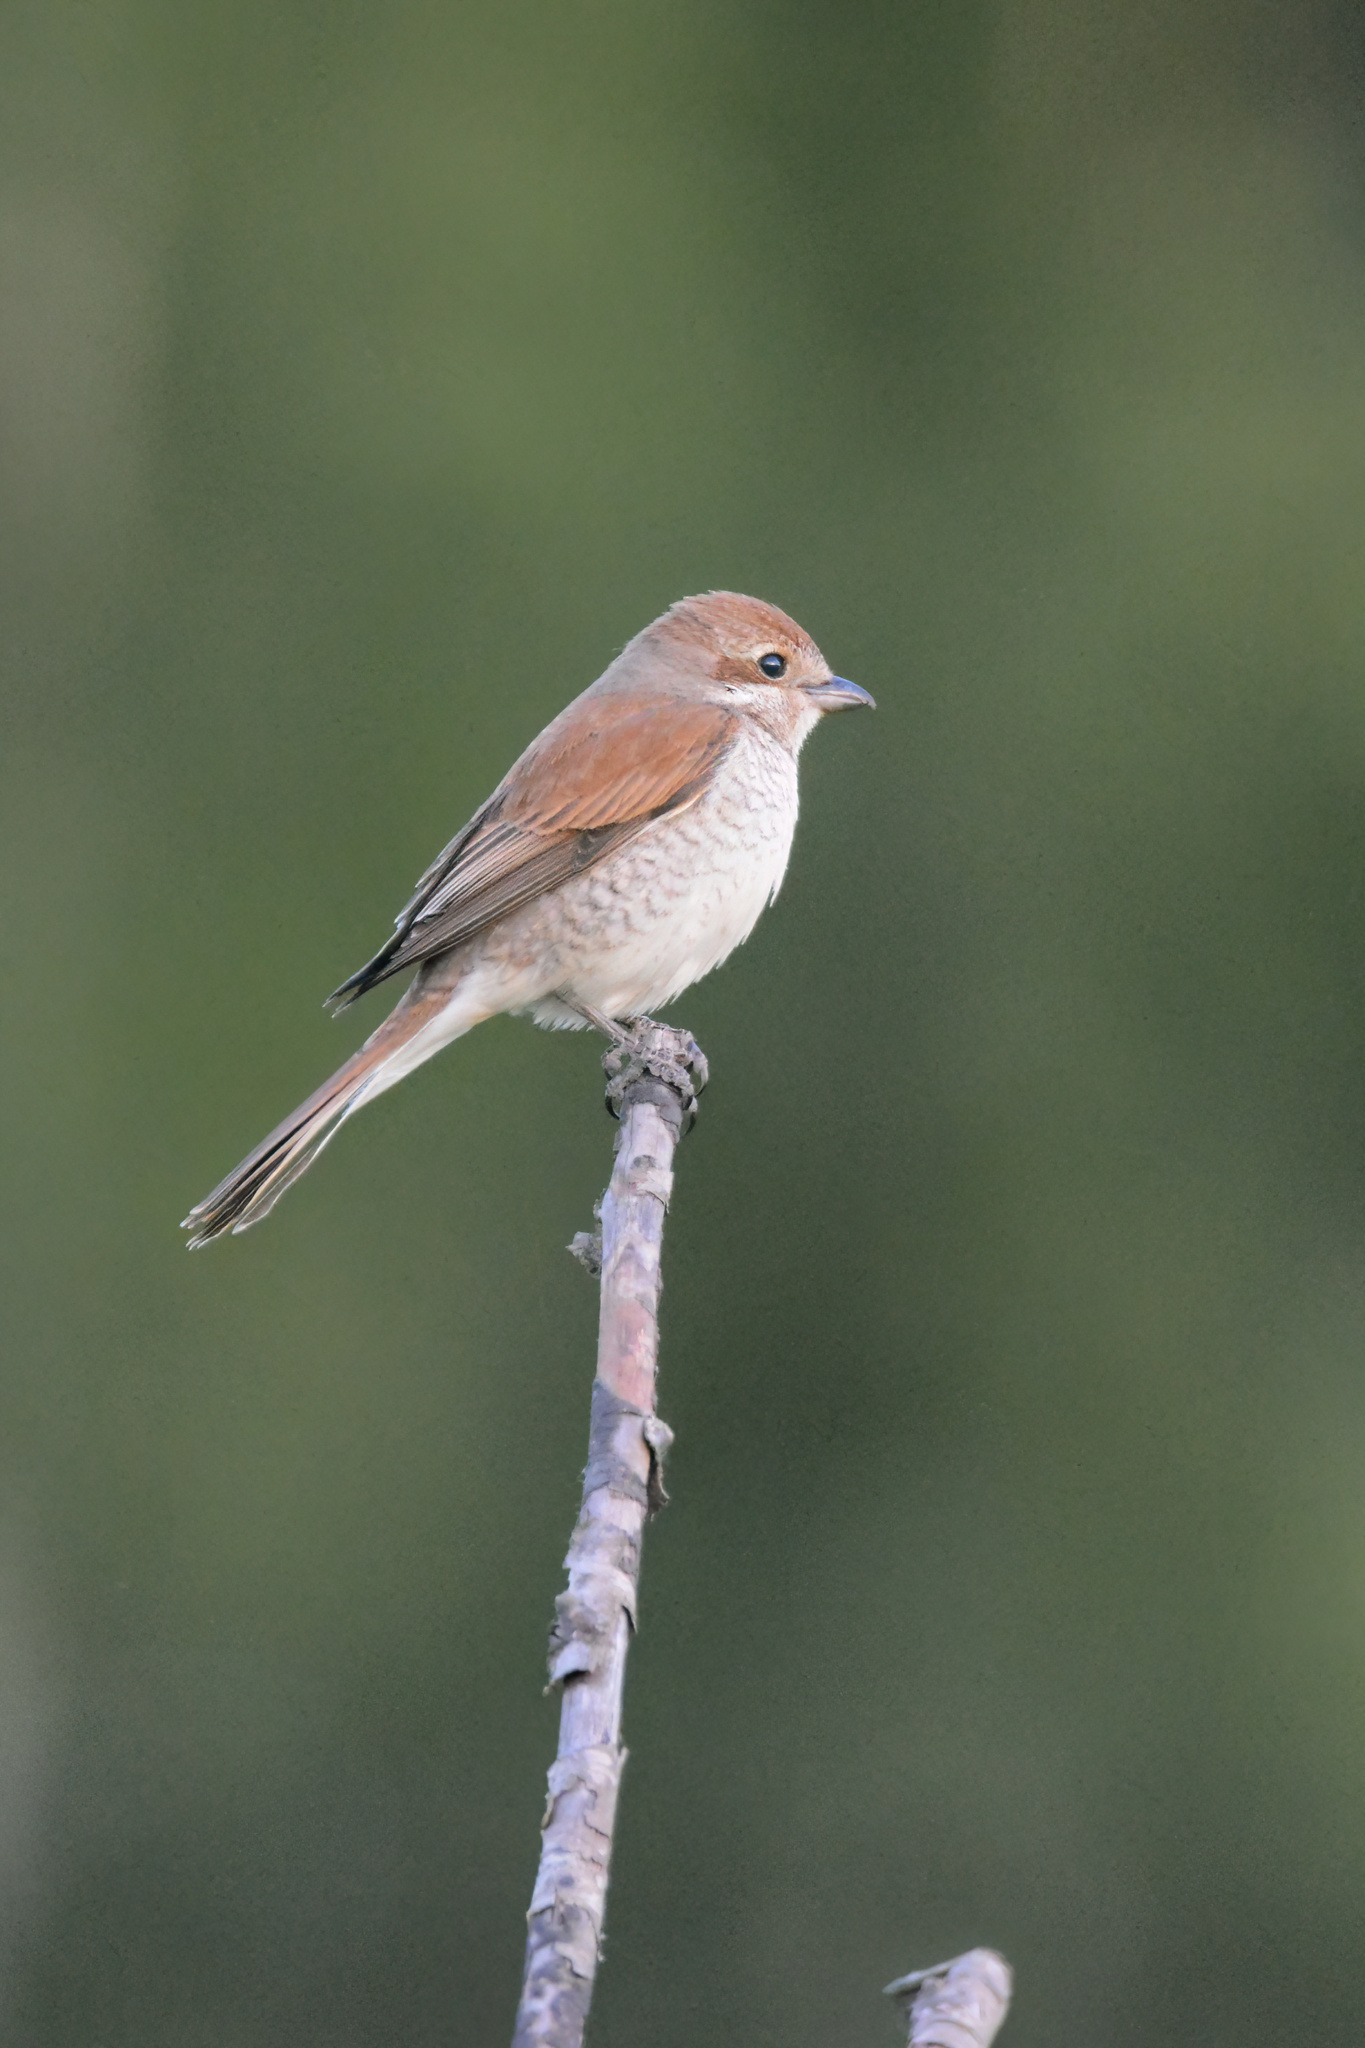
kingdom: Animalia
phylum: Chordata
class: Aves
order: Passeriformes
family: Laniidae
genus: Lanius
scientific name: Lanius collurio
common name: Red-backed shrike
